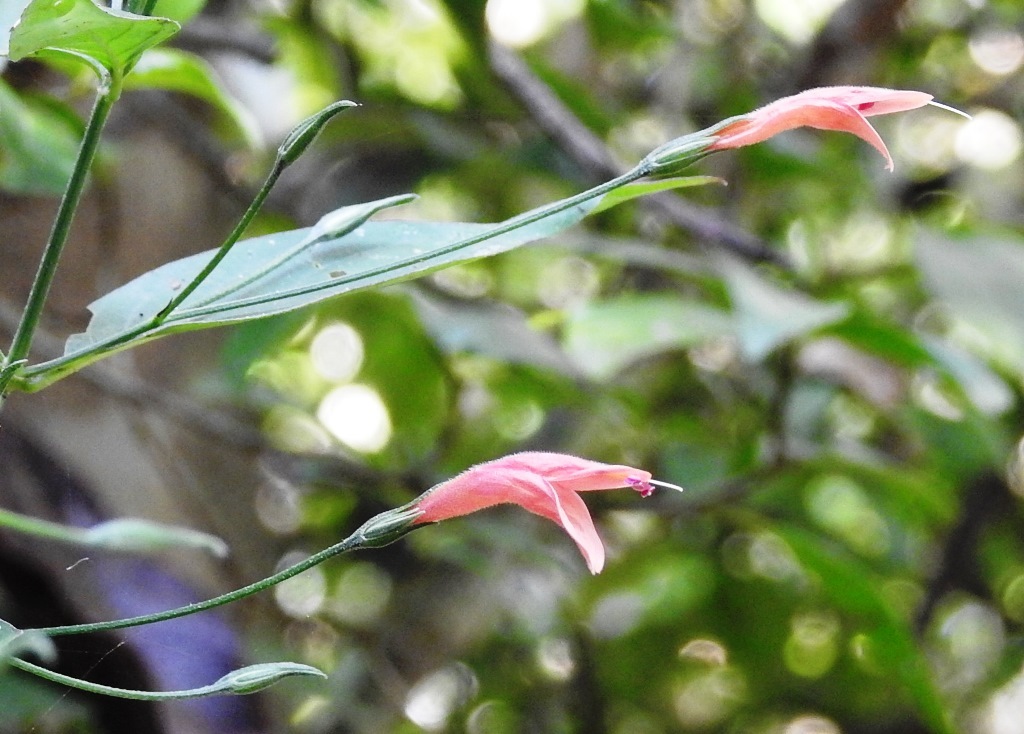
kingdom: Plantae
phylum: Tracheophyta
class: Magnoliopsida
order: Lamiales
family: Acanthaceae
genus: Dicliptera
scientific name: Dicliptera sciadephora
